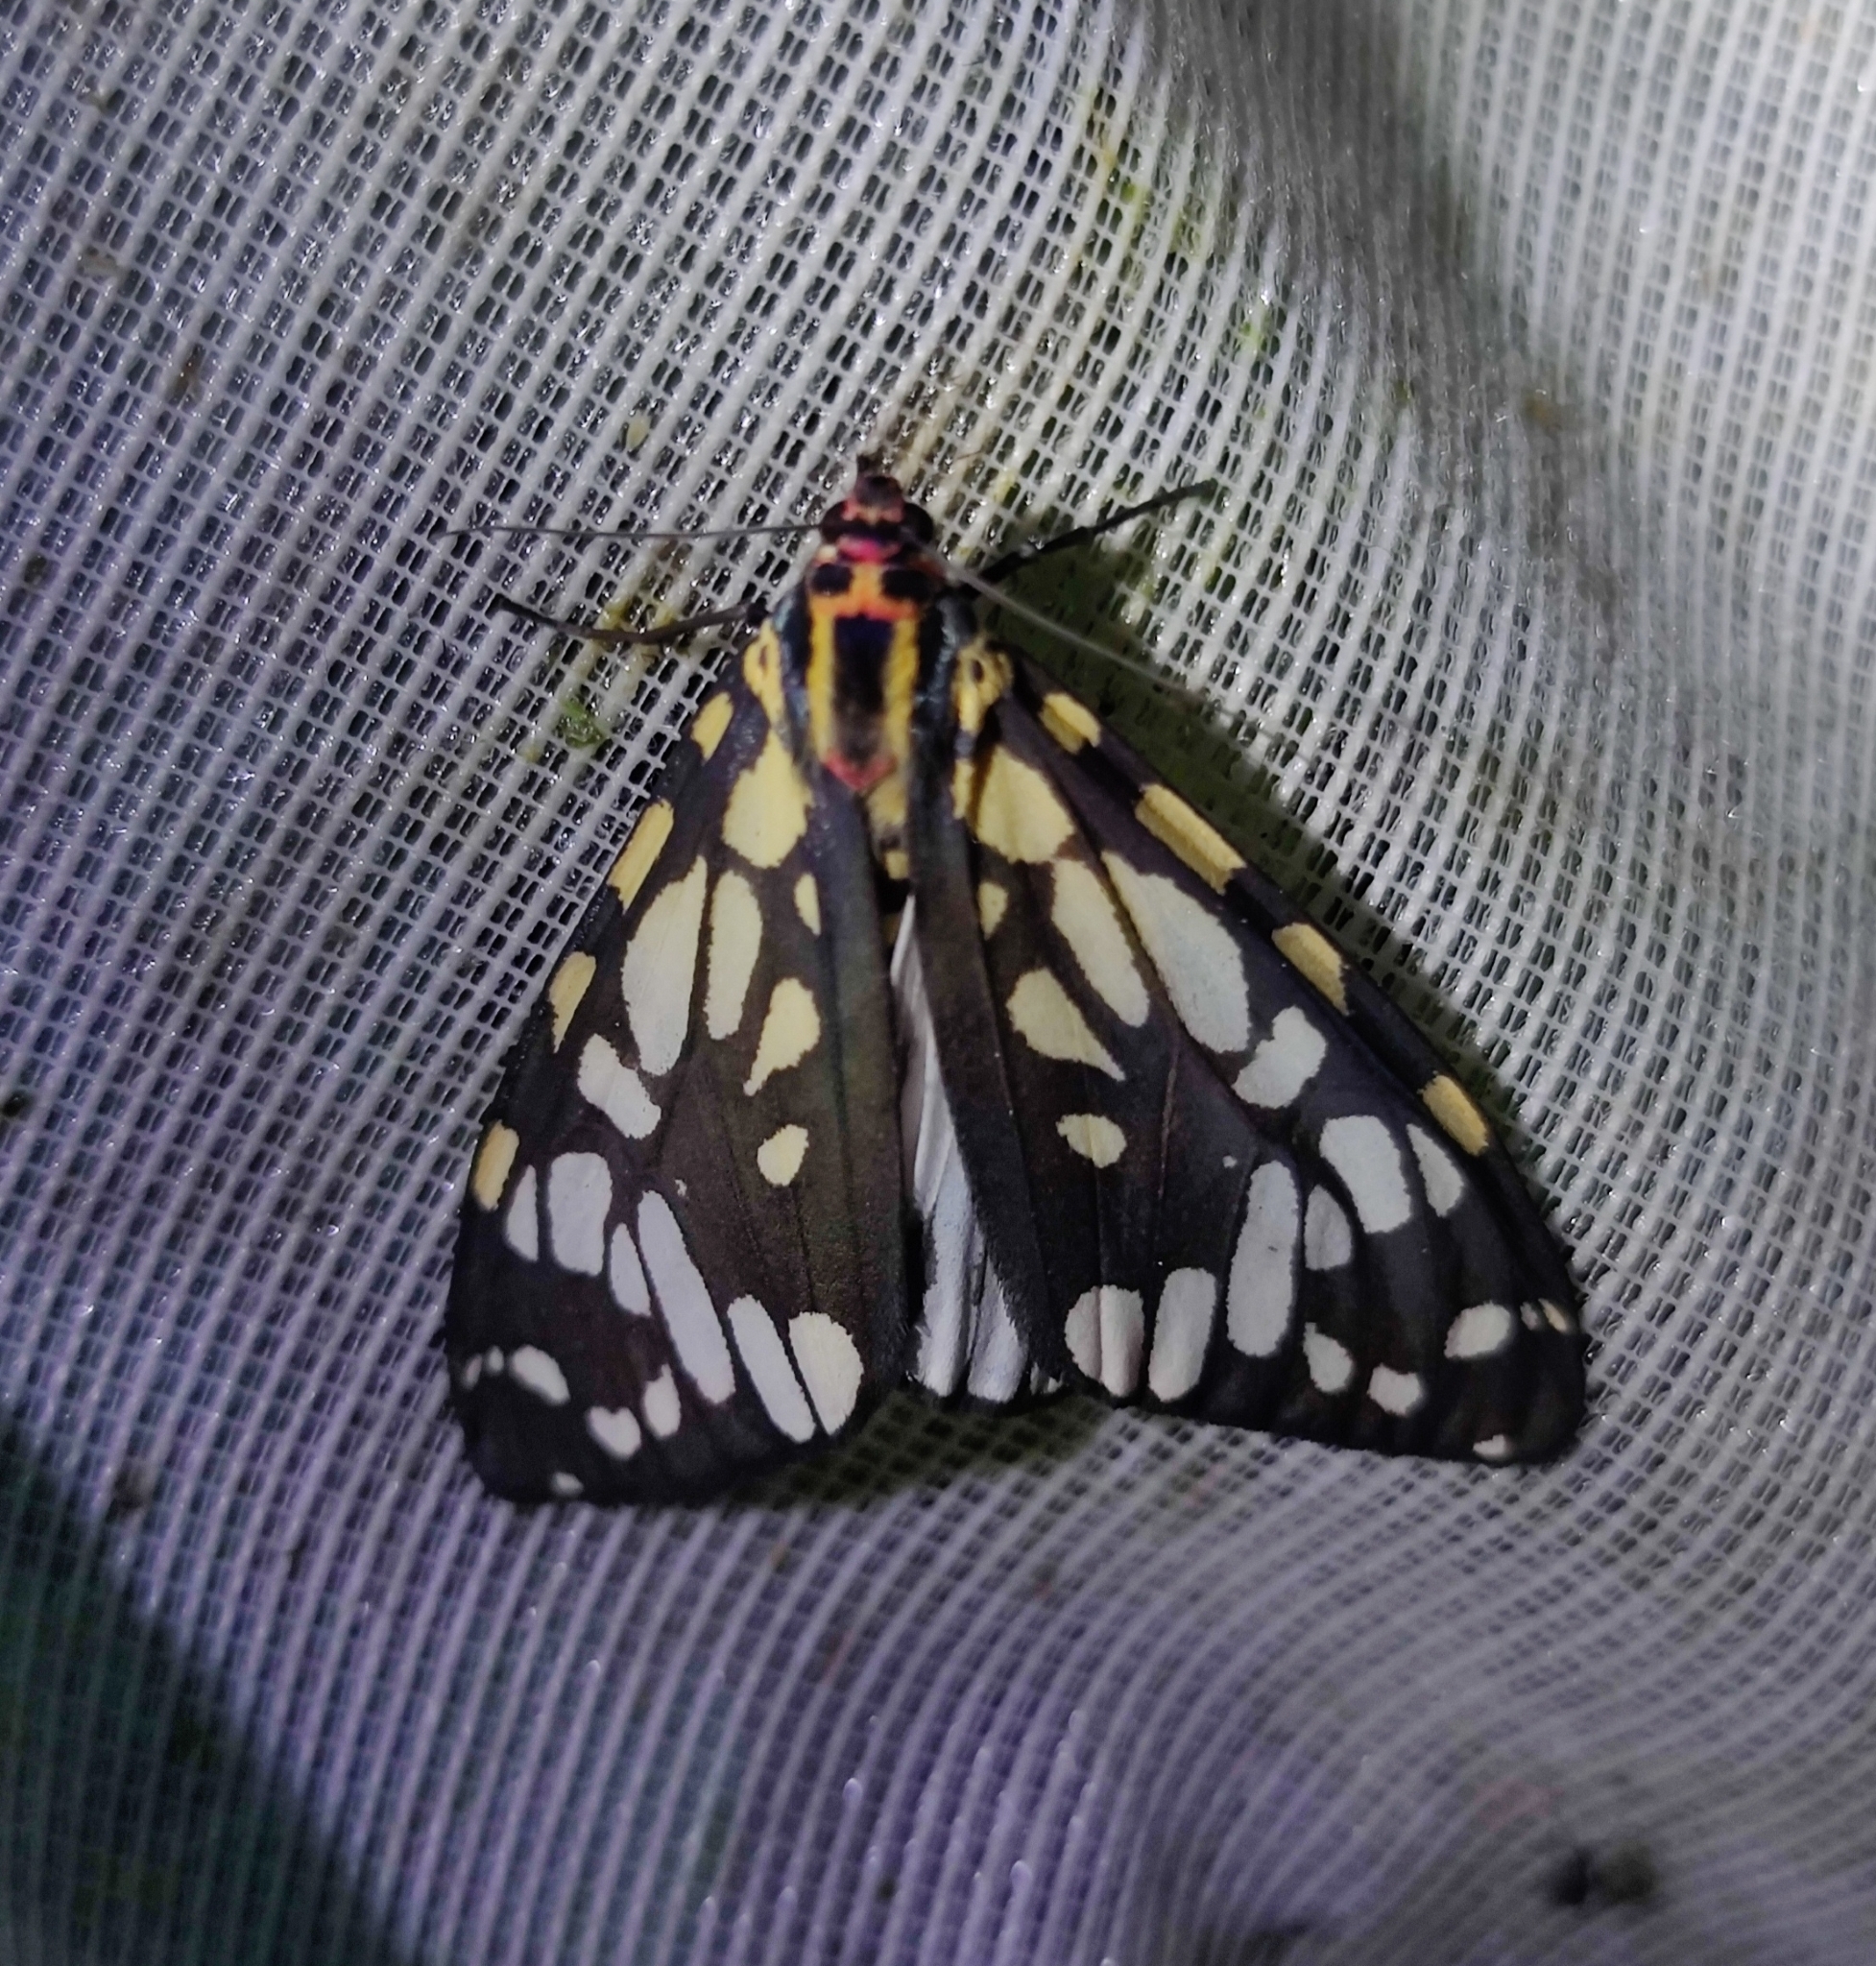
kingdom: Animalia
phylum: Arthropoda
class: Insecta
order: Lepidoptera
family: Erebidae
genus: Callindra
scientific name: Callindra nyctemerata
